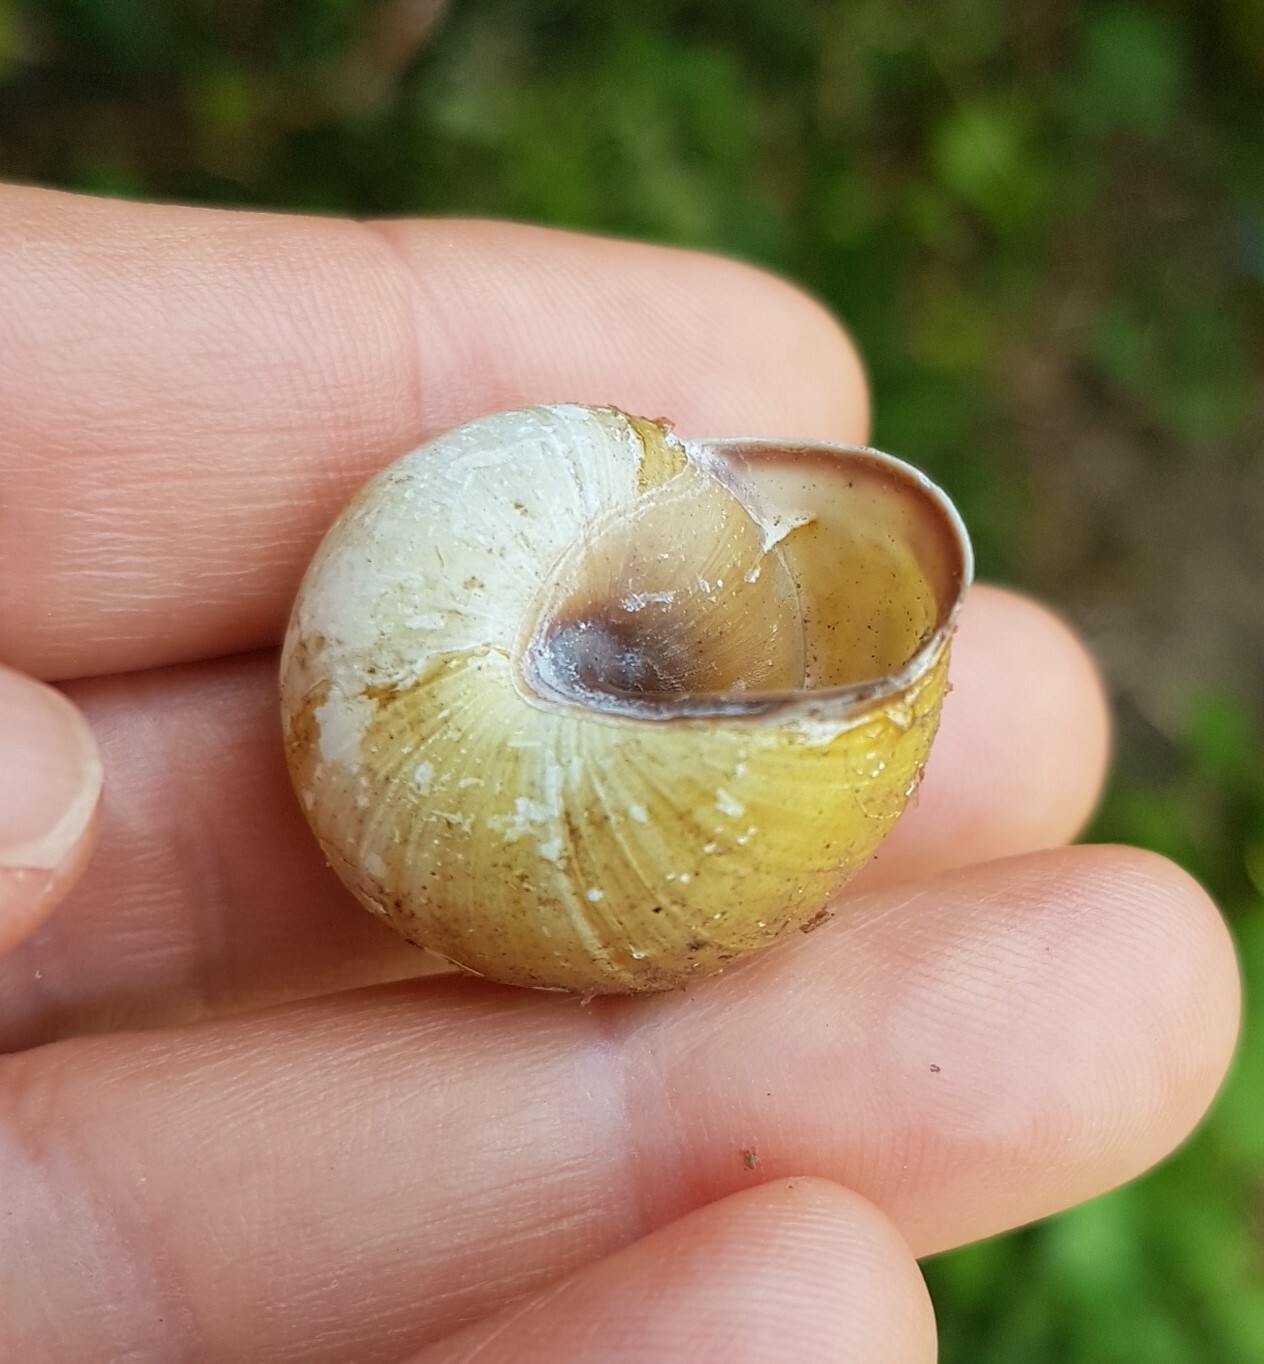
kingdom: Animalia
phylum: Mollusca
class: Gastropoda
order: Stylommatophora
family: Helicidae
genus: Cepaea
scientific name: Cepaea nemoralis
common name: Grovesnail
